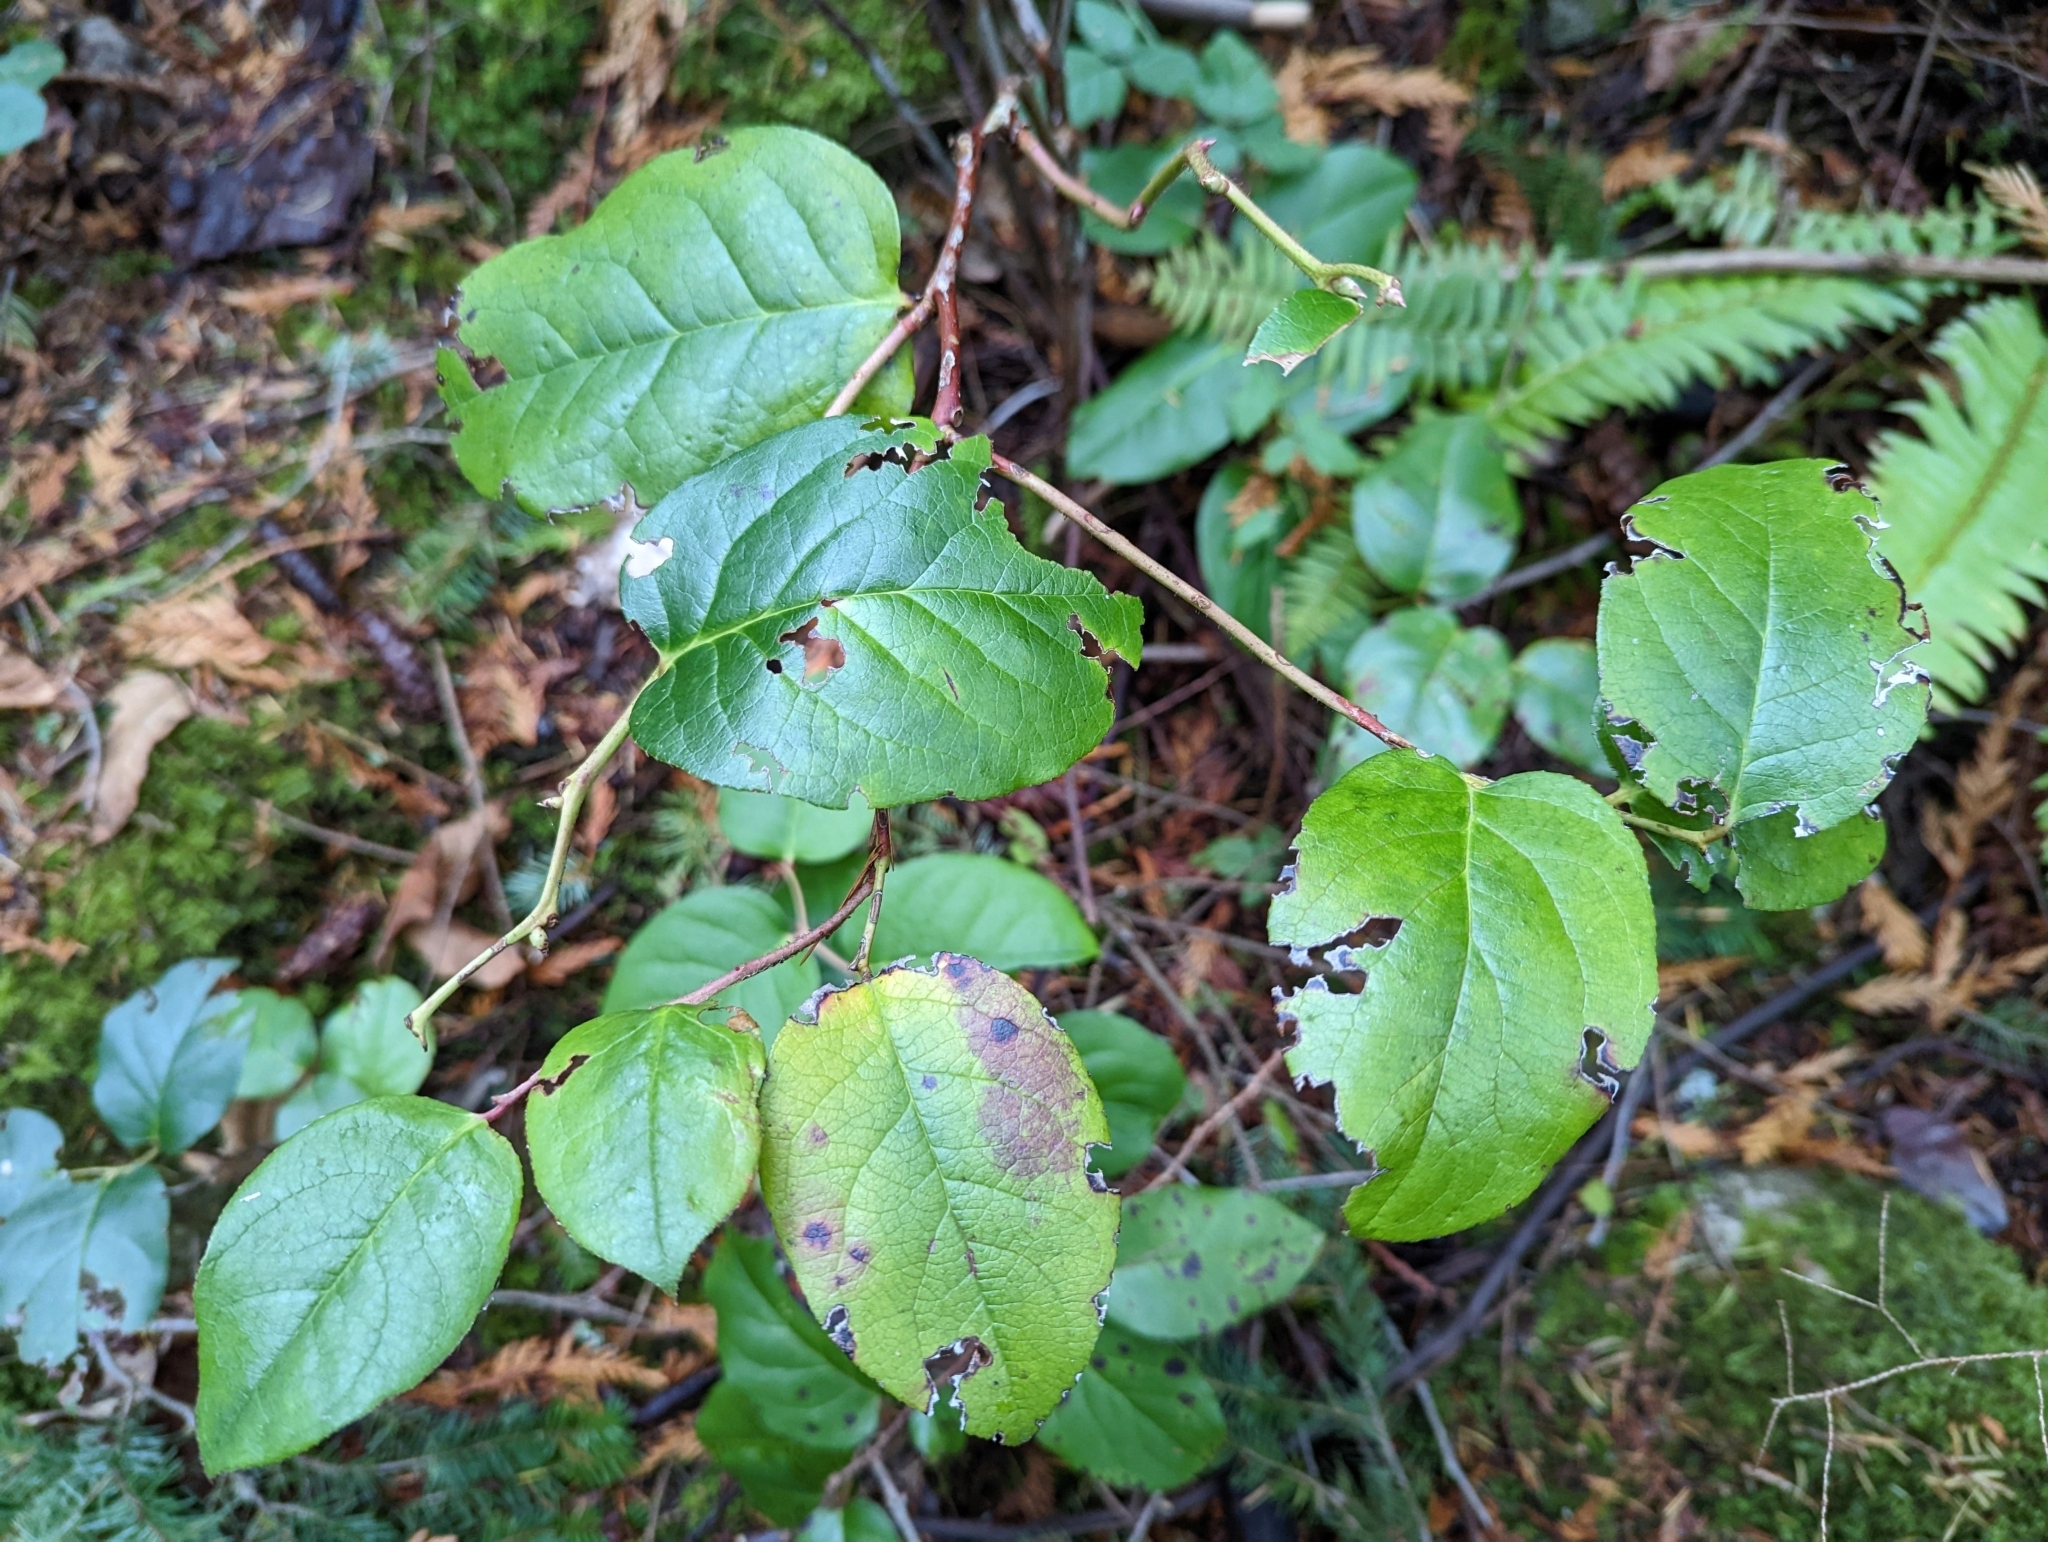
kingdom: Plantae
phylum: Tracheophyta
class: Magnoliopsida
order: Ericales
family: Ericaceae
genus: Gaultheria
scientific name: Gaultheria shallon
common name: Shallon
